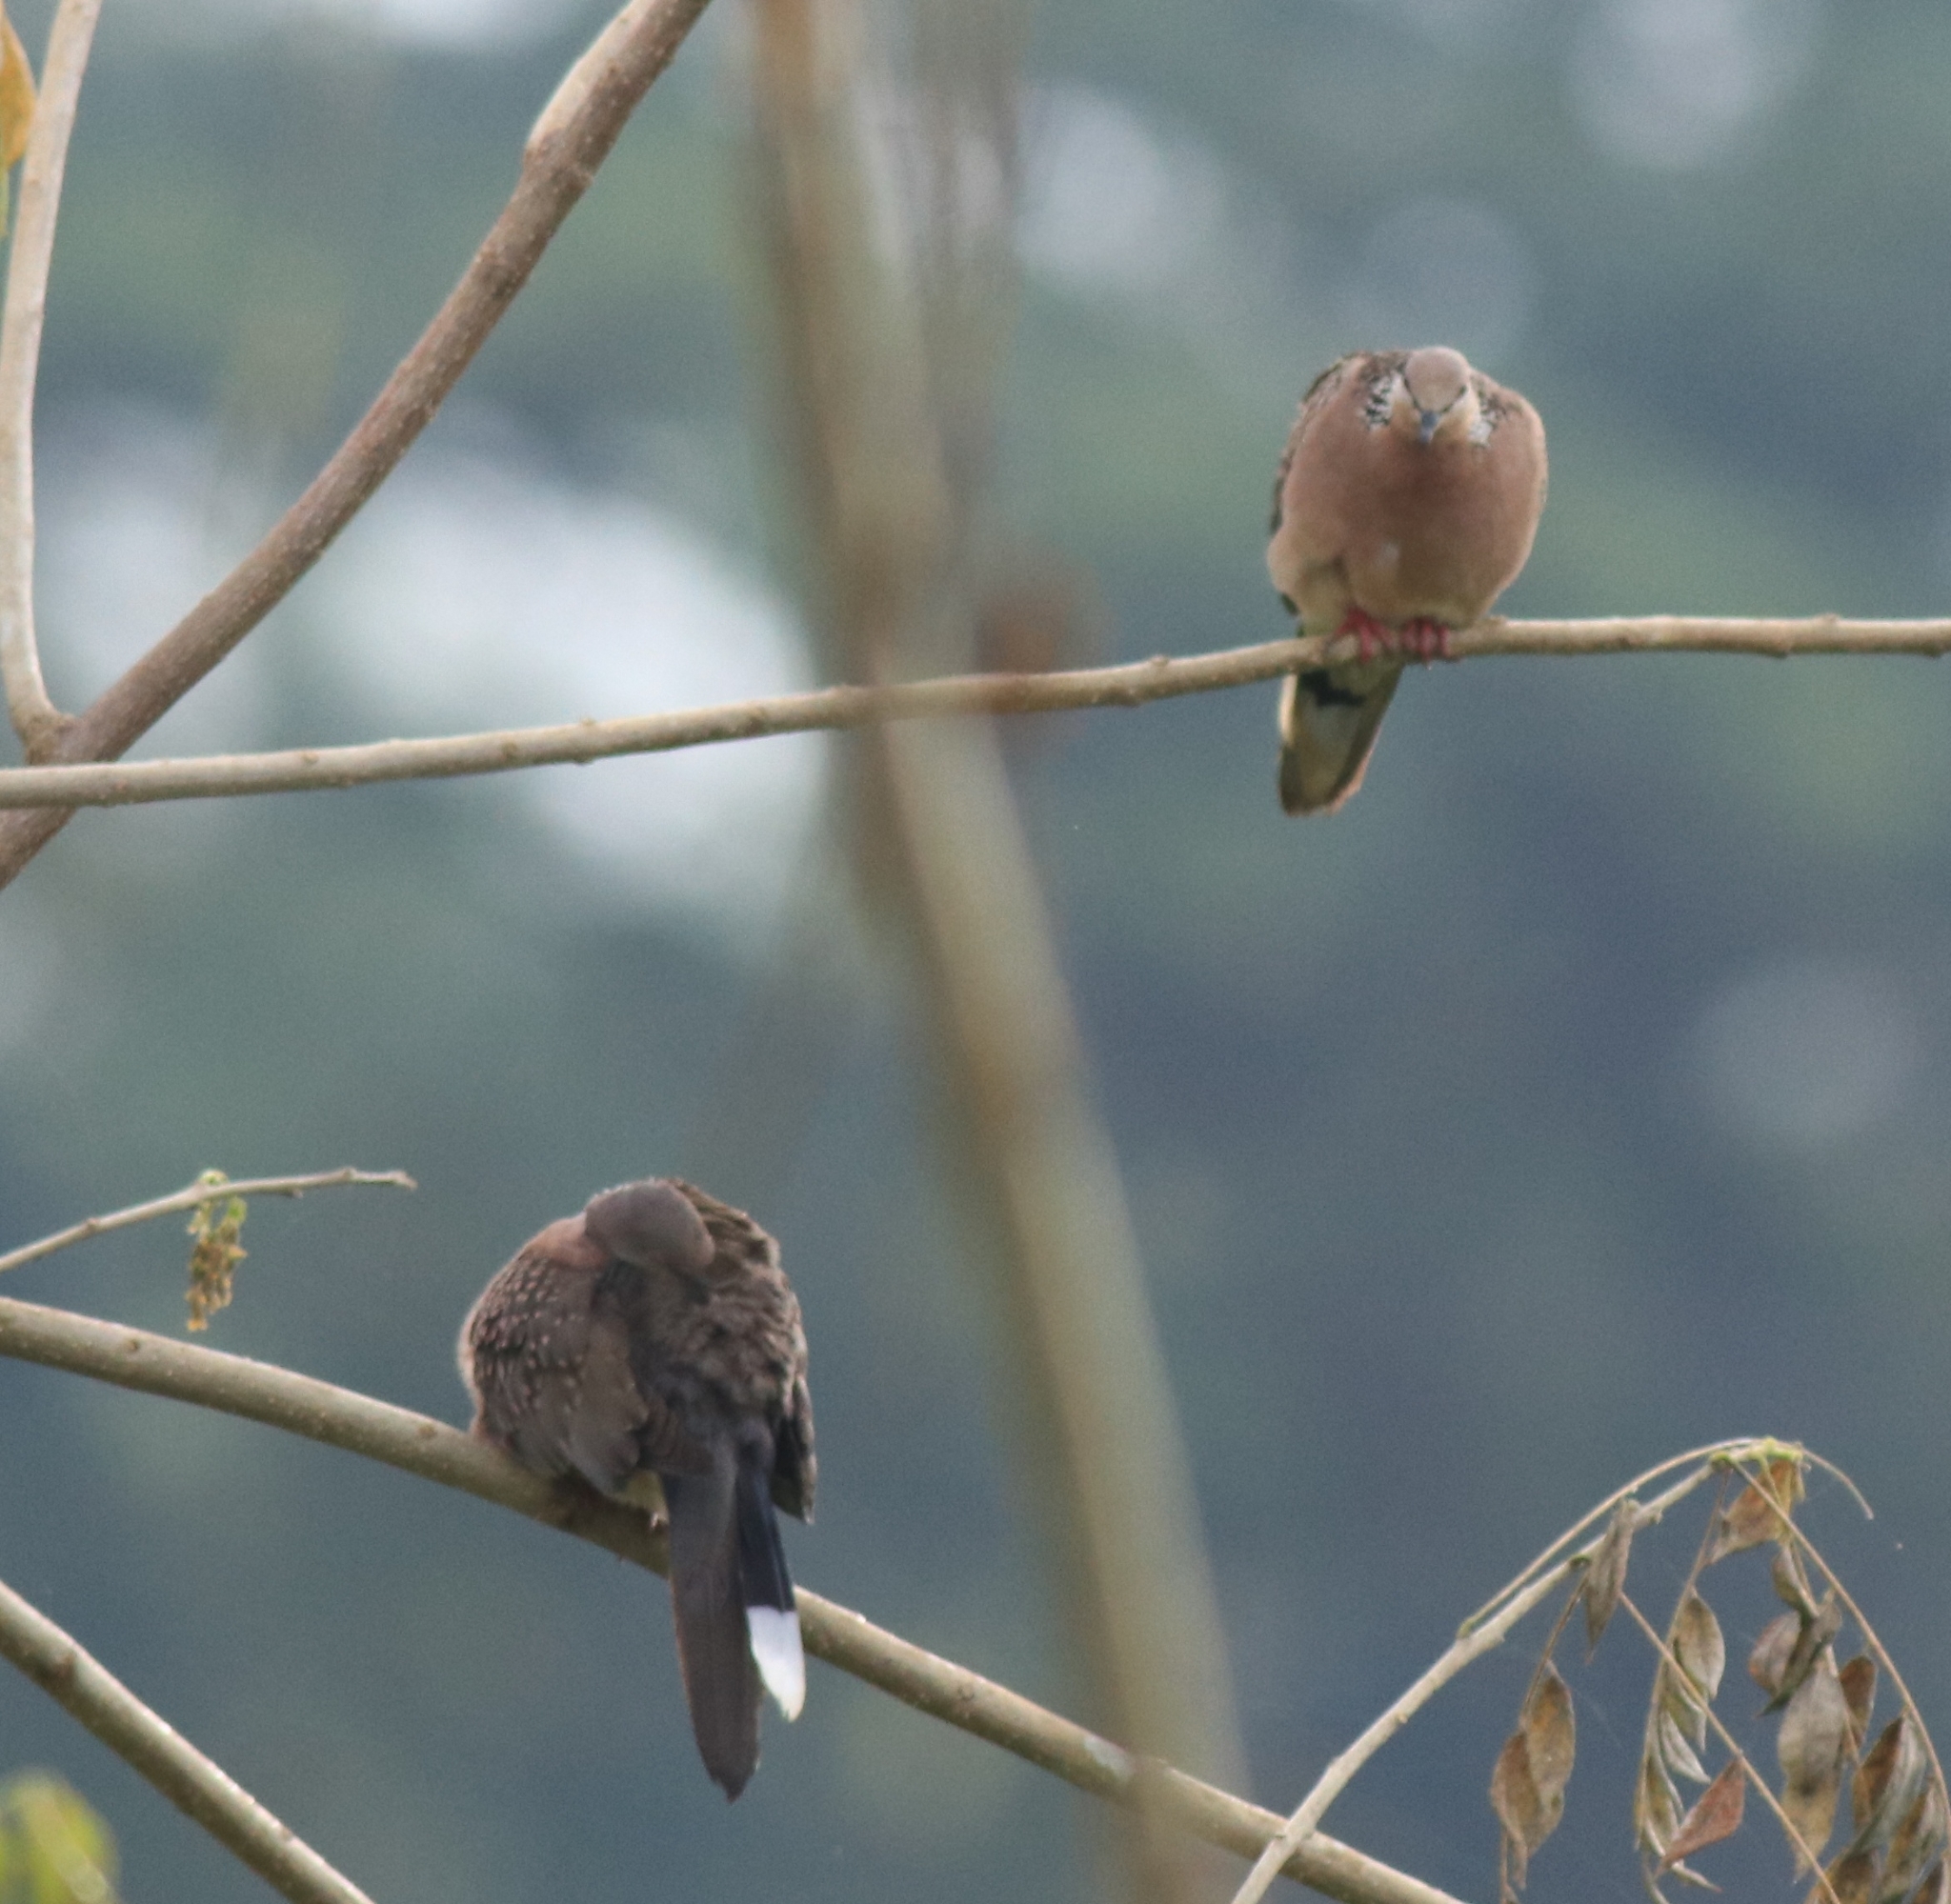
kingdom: Animalia
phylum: Chordata
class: Aves
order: Columbiformes
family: Columbidae
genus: Spilopelia
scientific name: Spilopelia chinensis
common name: Spotted dove
